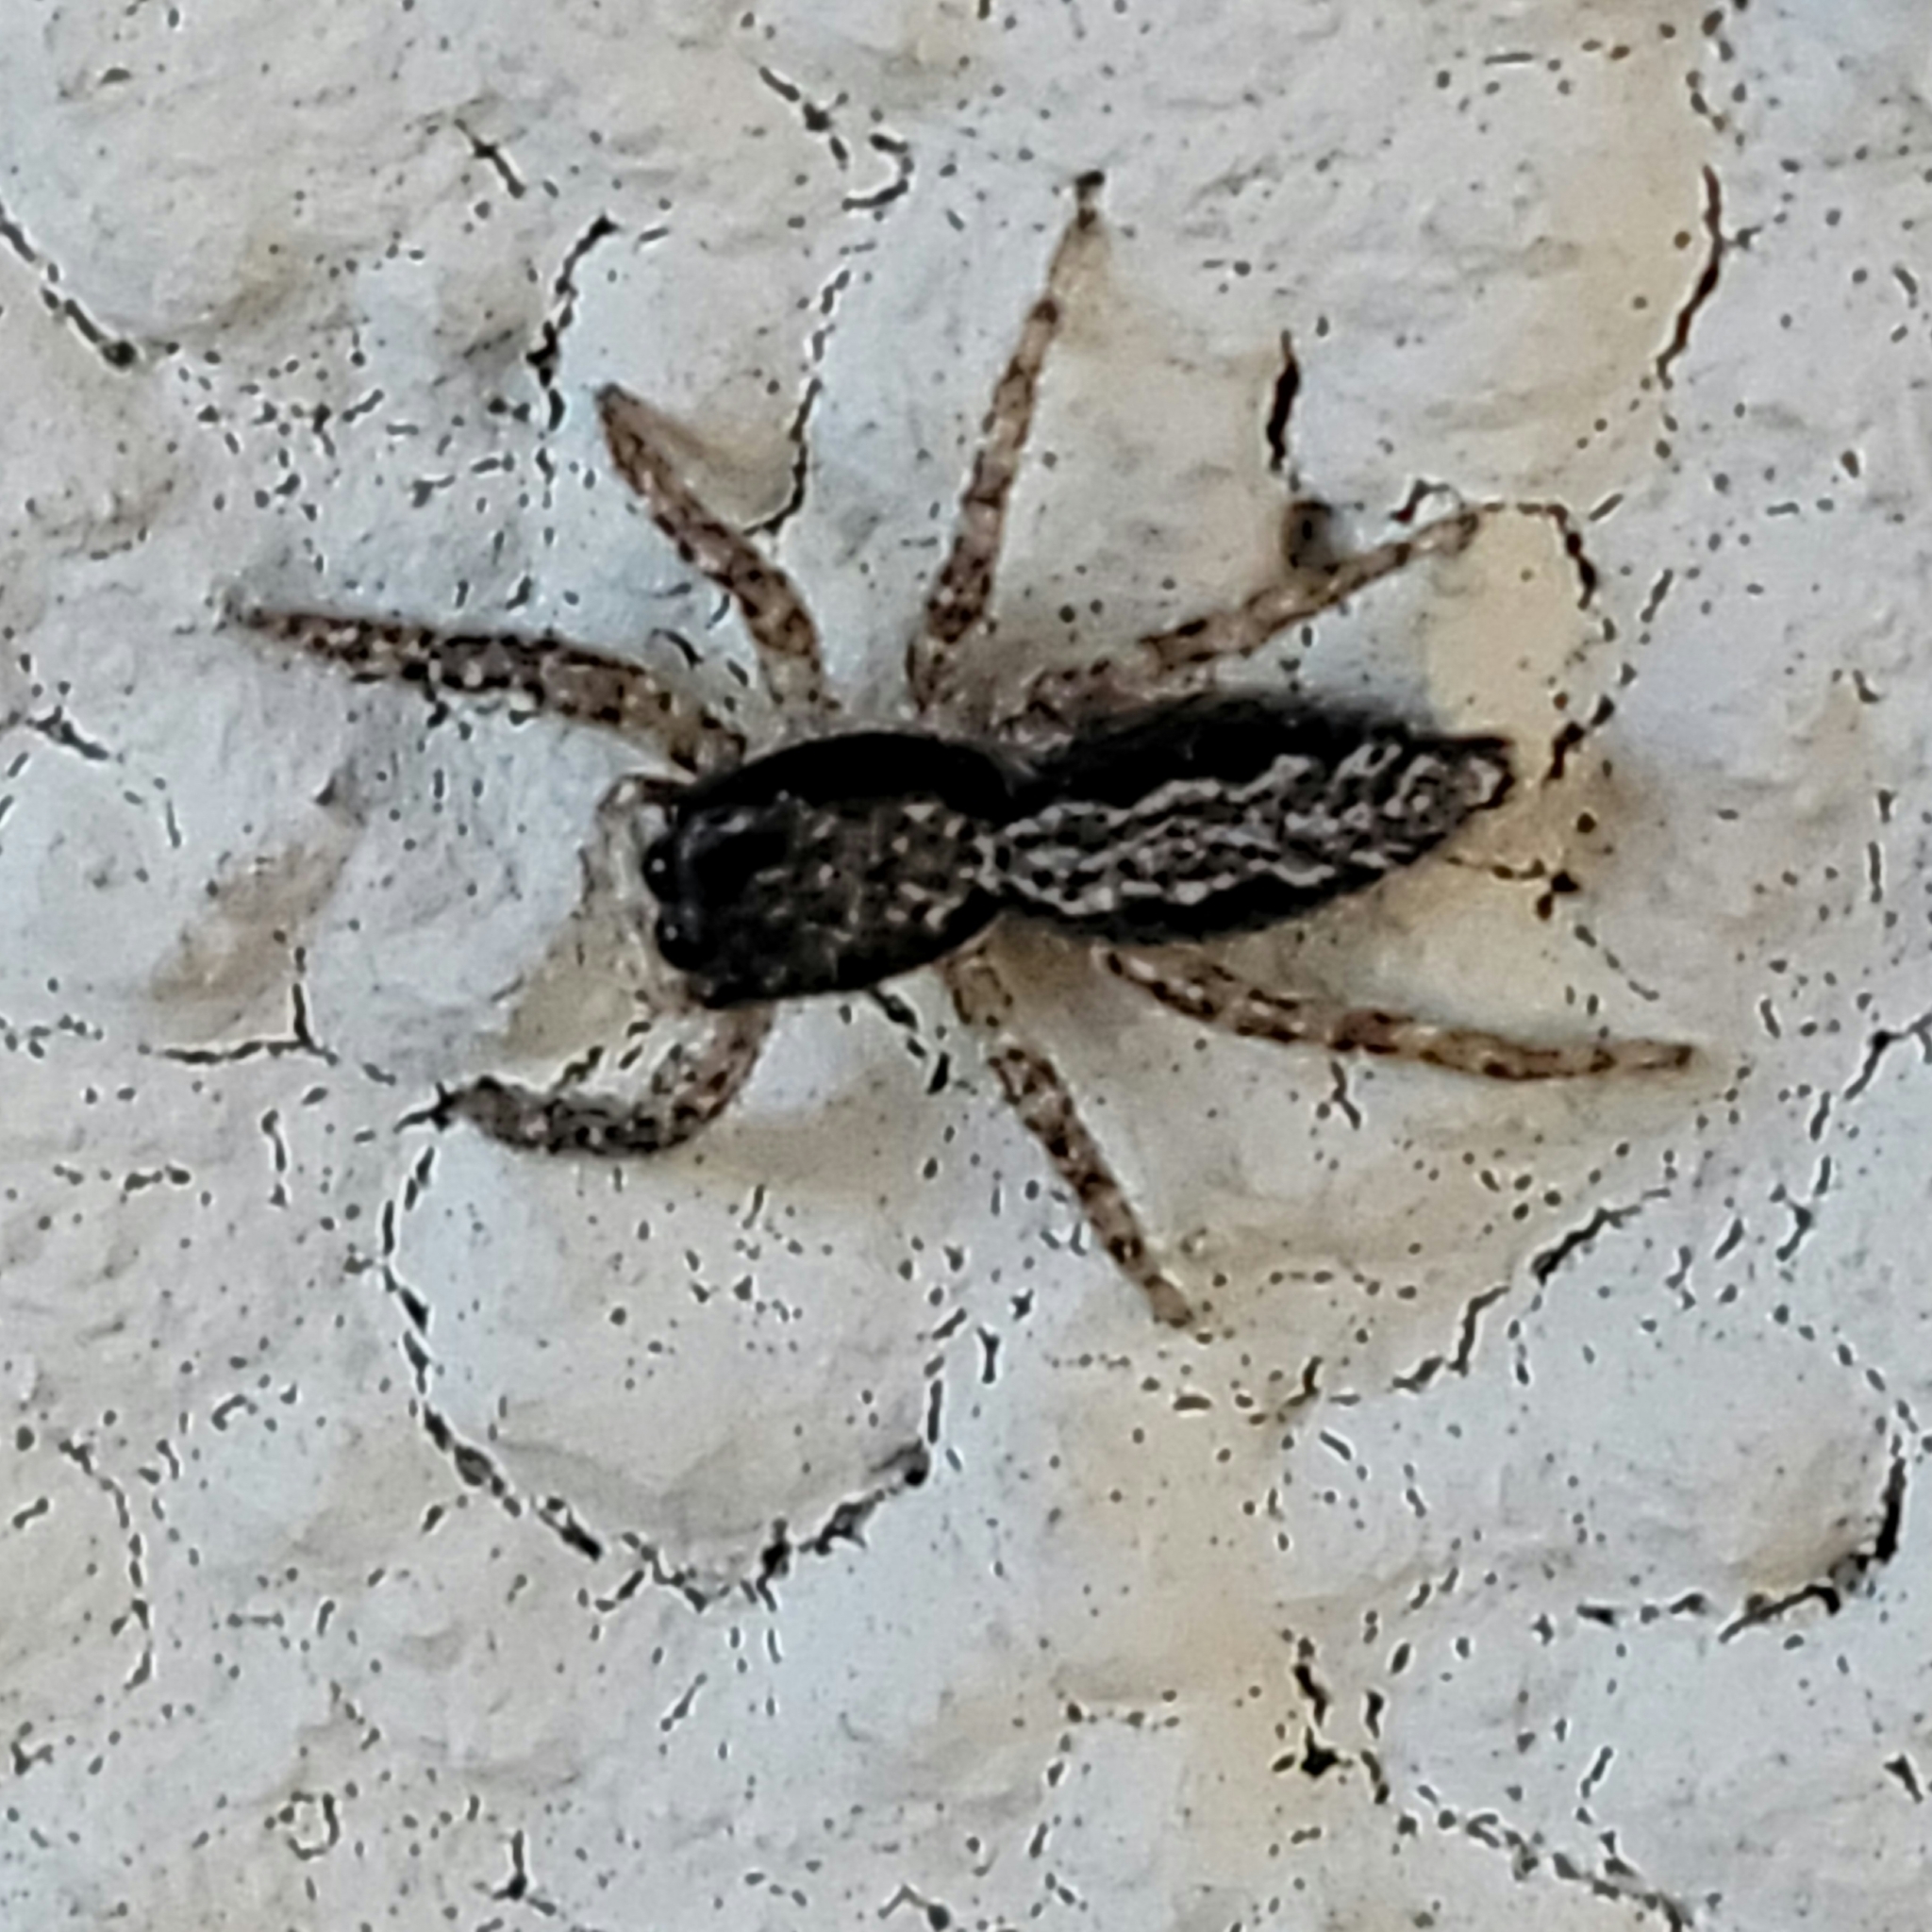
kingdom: Animalia
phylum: Arthropoda
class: Arachnida
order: Araneae
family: Salticidae
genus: Platycryptus
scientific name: Platycryptus californicus
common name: Jumping spiders
